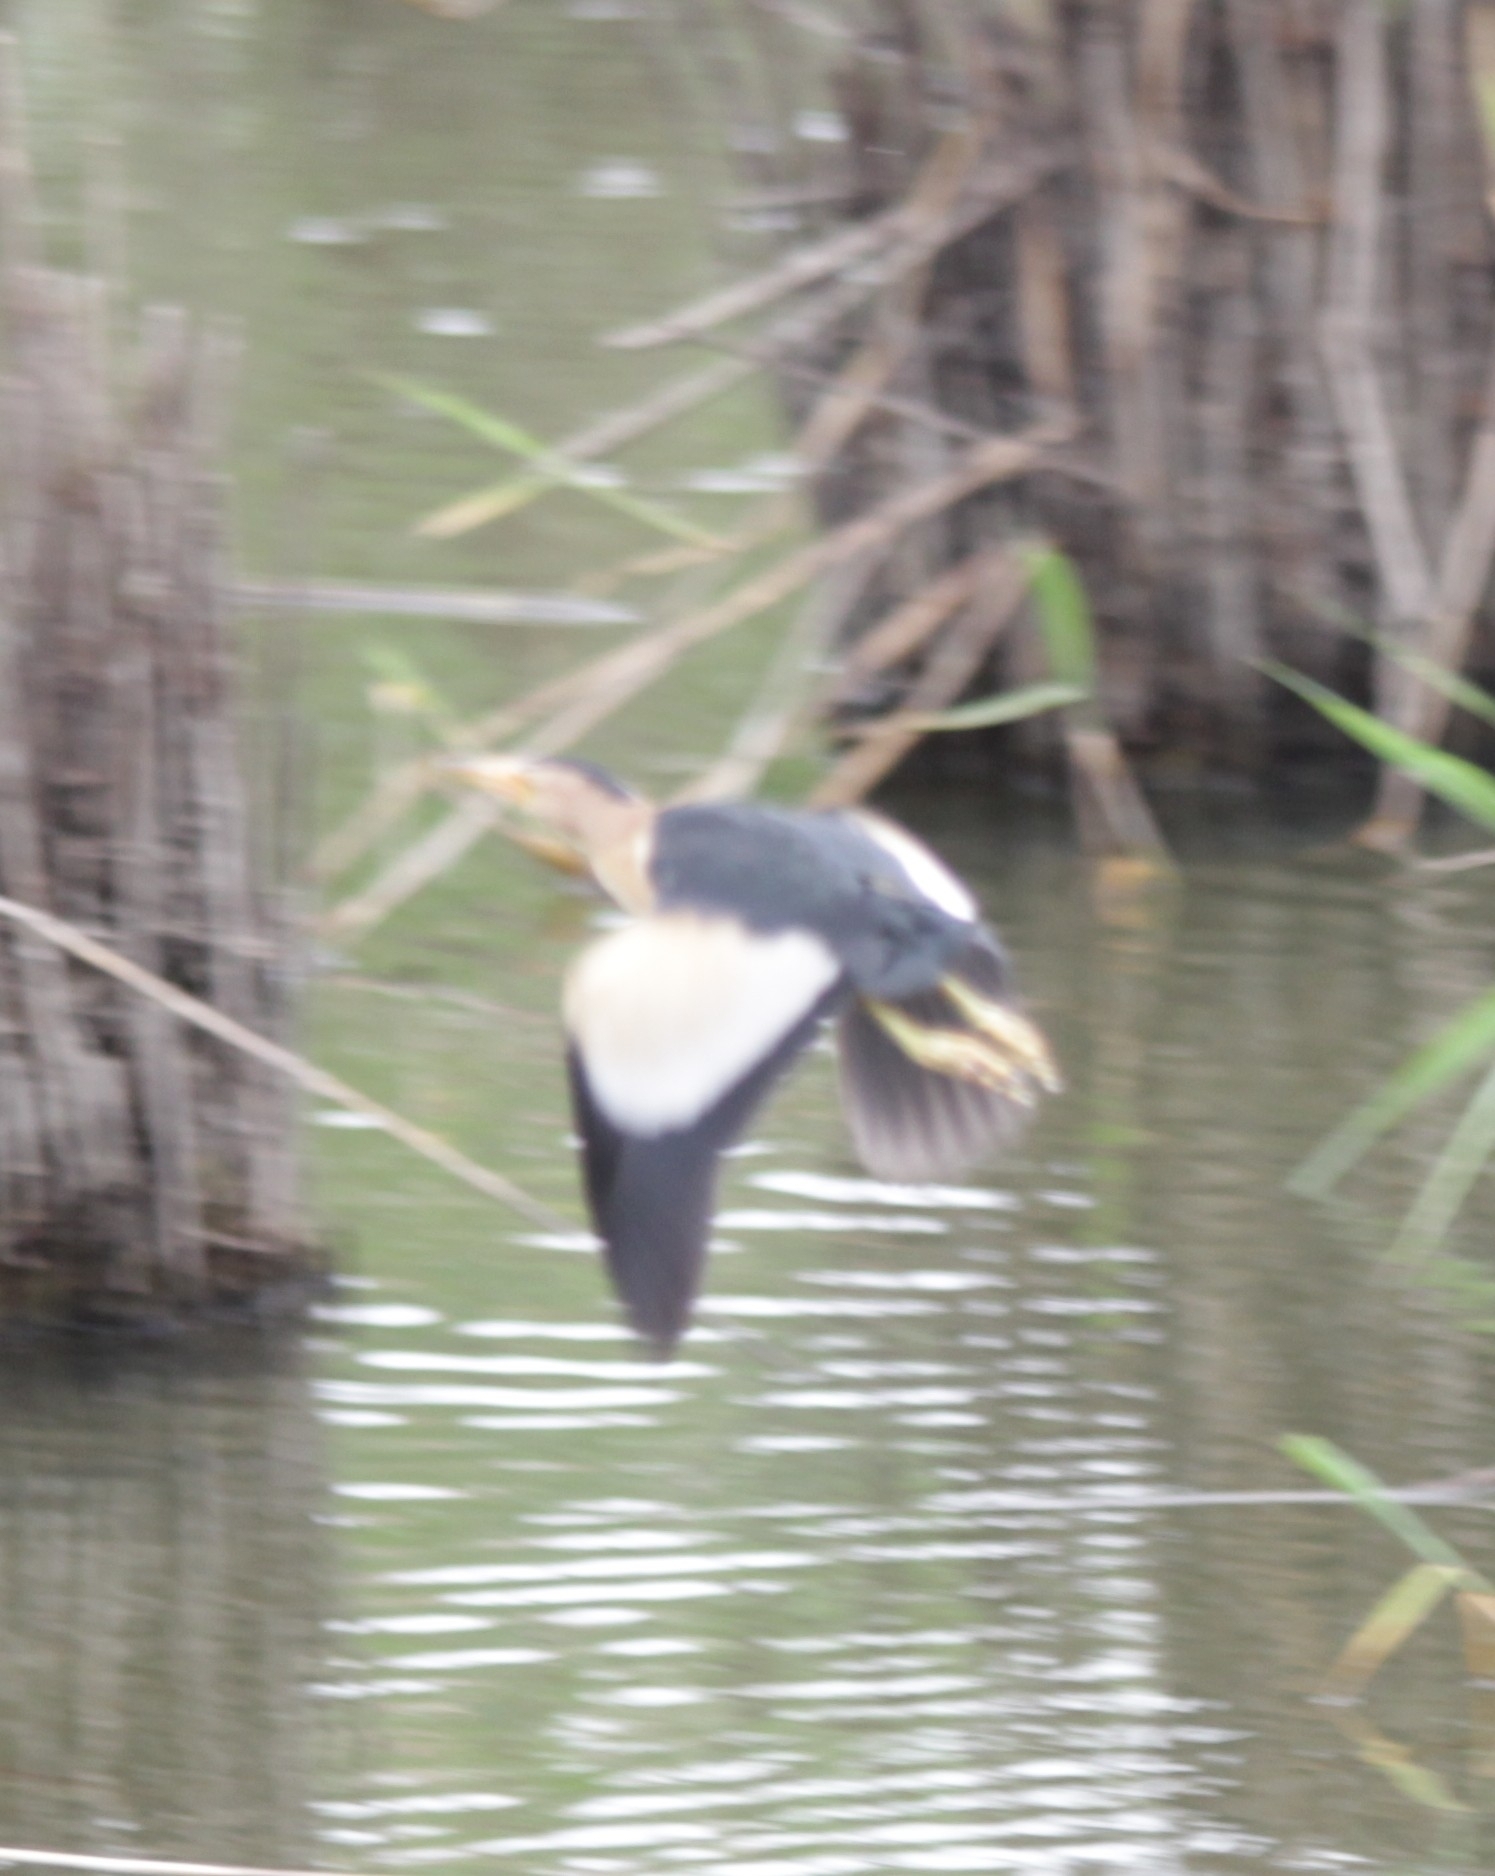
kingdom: Animalia
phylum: Chordata
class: Aves
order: Pelecaniformes
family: Ardeidae
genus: Ixobrychus
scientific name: Ixobrychus minutus
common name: Little bittern
